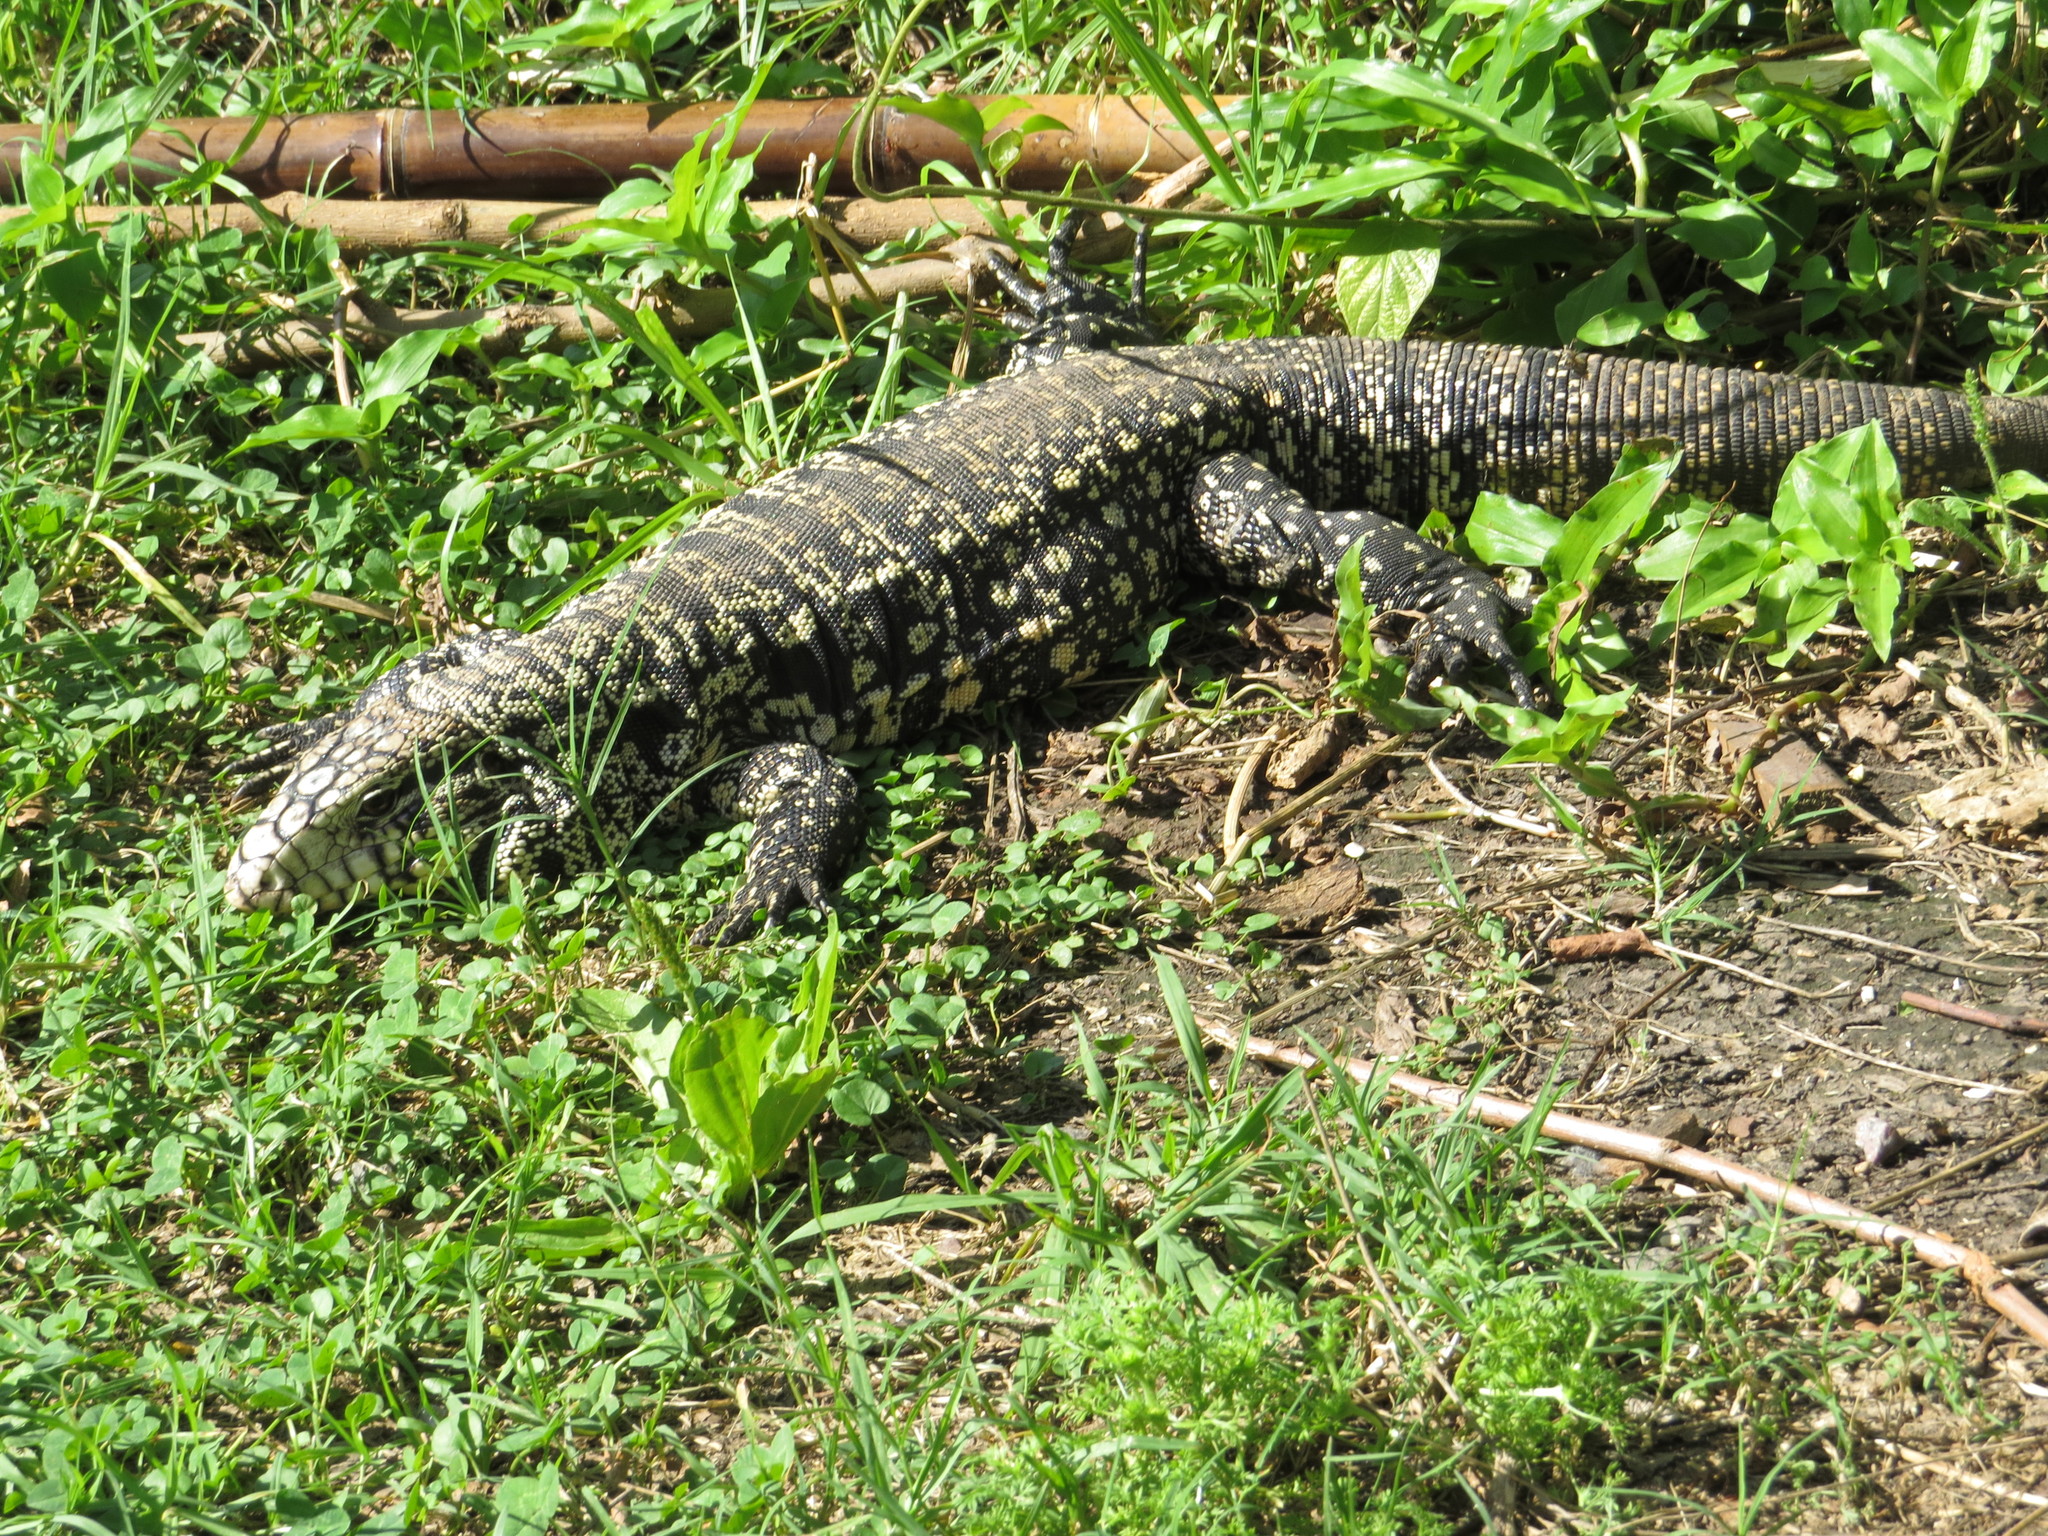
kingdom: Animalia
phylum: Chordata
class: Squamata
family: Teiidae
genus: Salvator
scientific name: Salvator merianae
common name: Argentine black and white tegu
